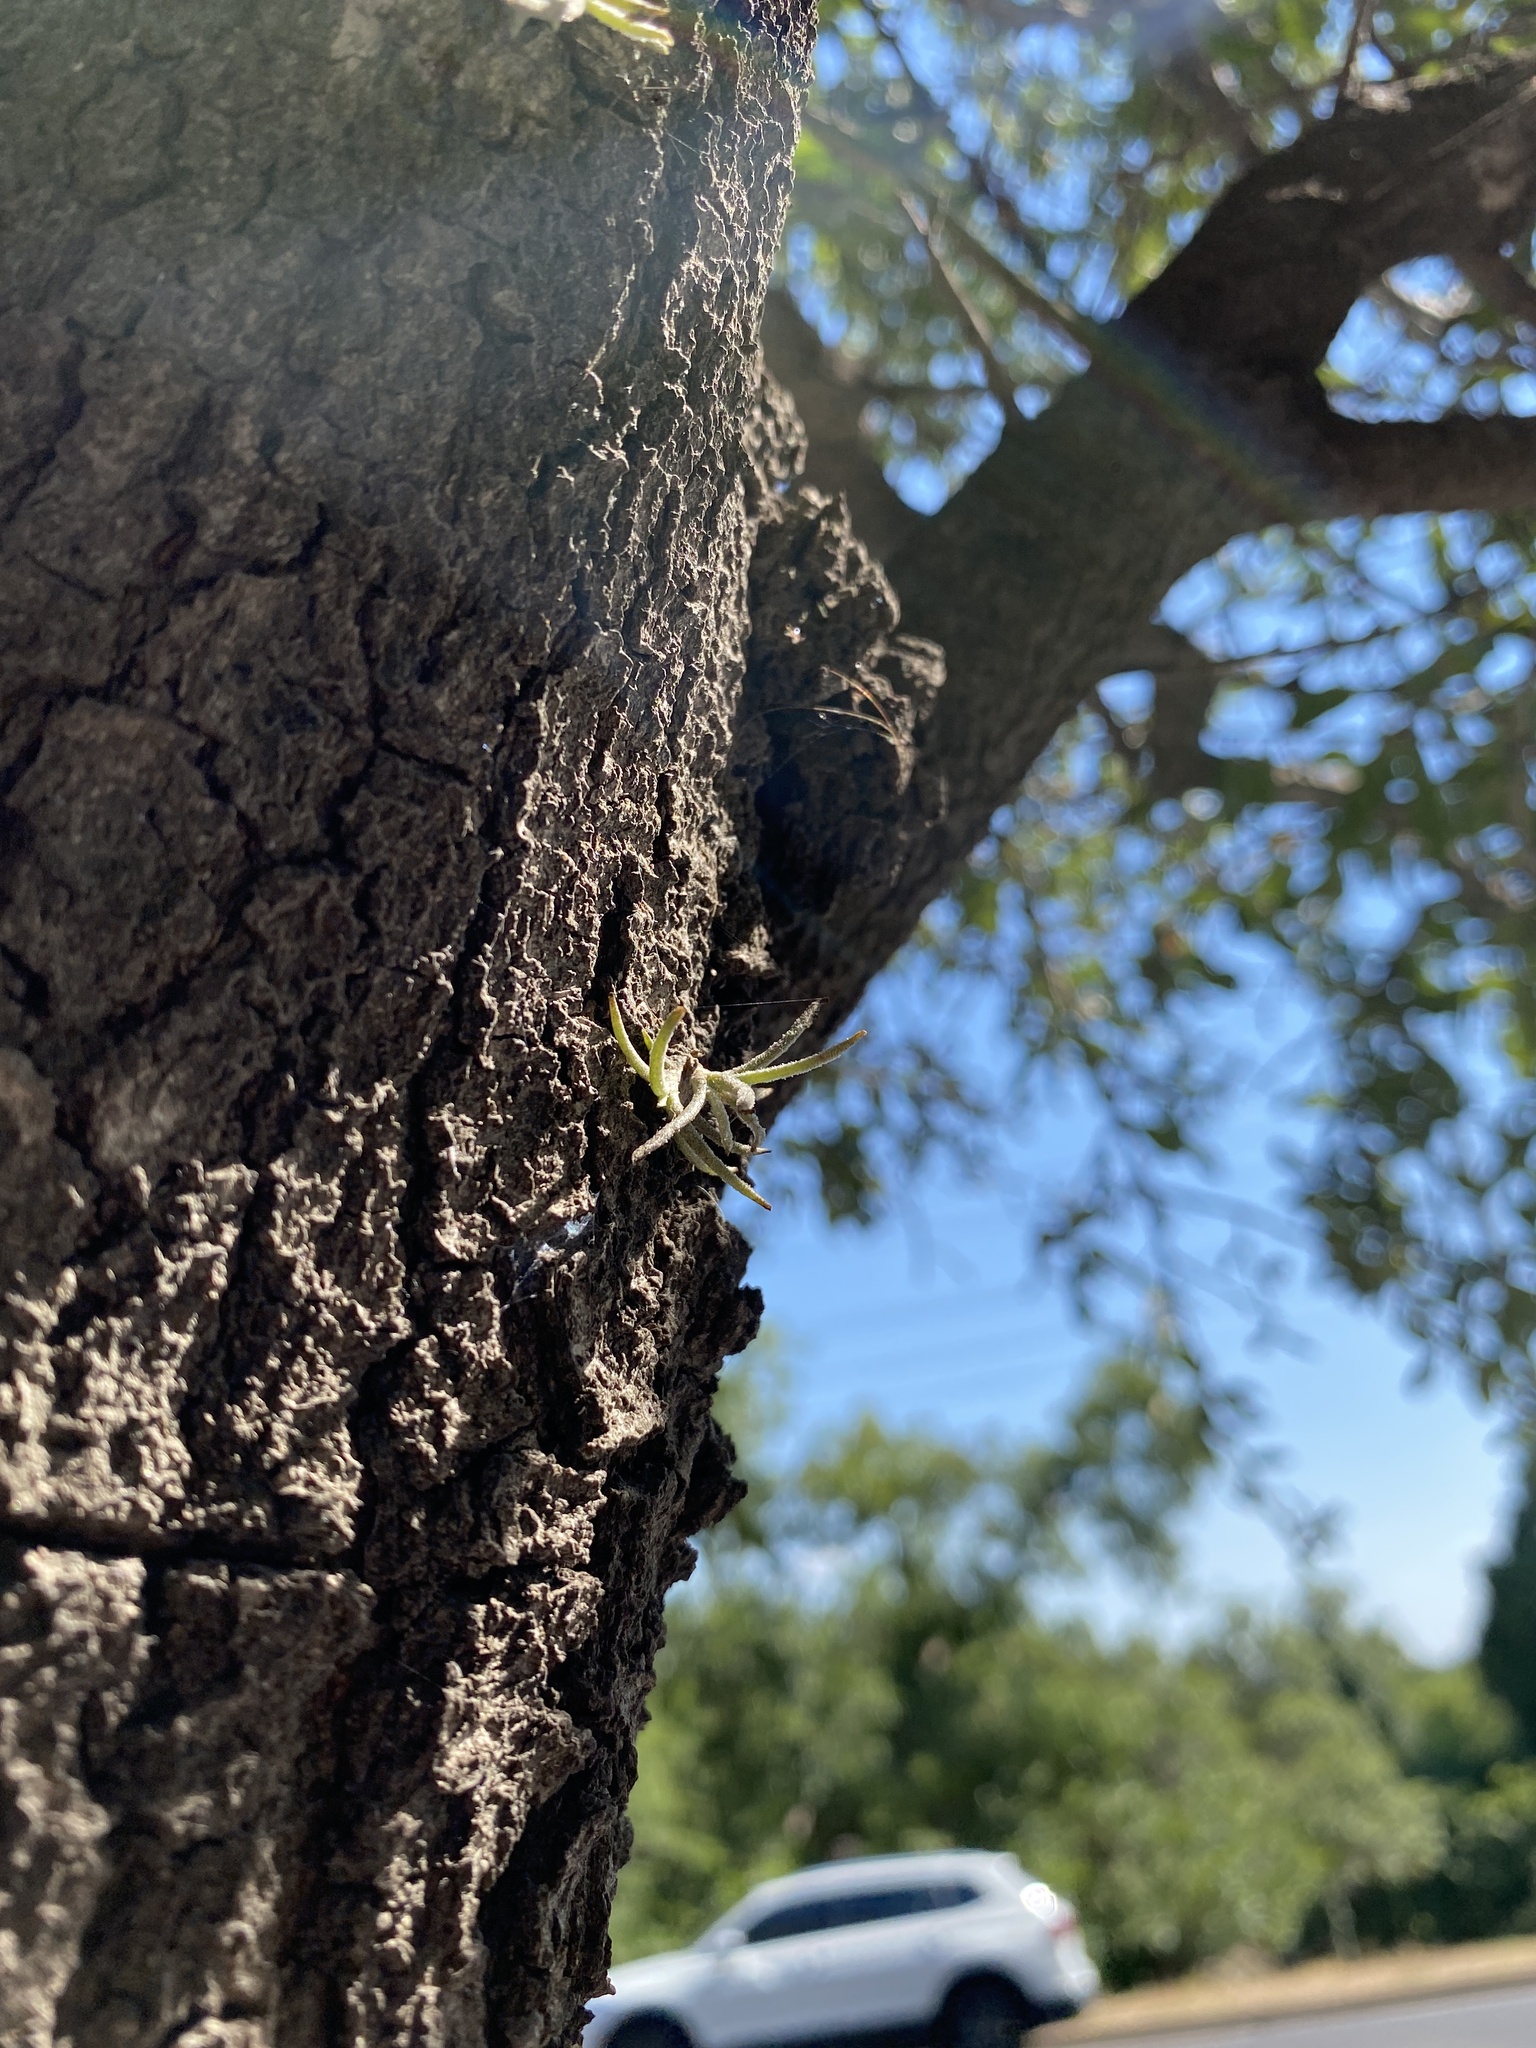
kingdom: Plantae
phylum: Tracheophyta
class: Liliopsida
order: Poales
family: Bromeliaceae
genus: Tillandsia
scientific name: Tillandsia recurvata
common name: Small ballmoss
